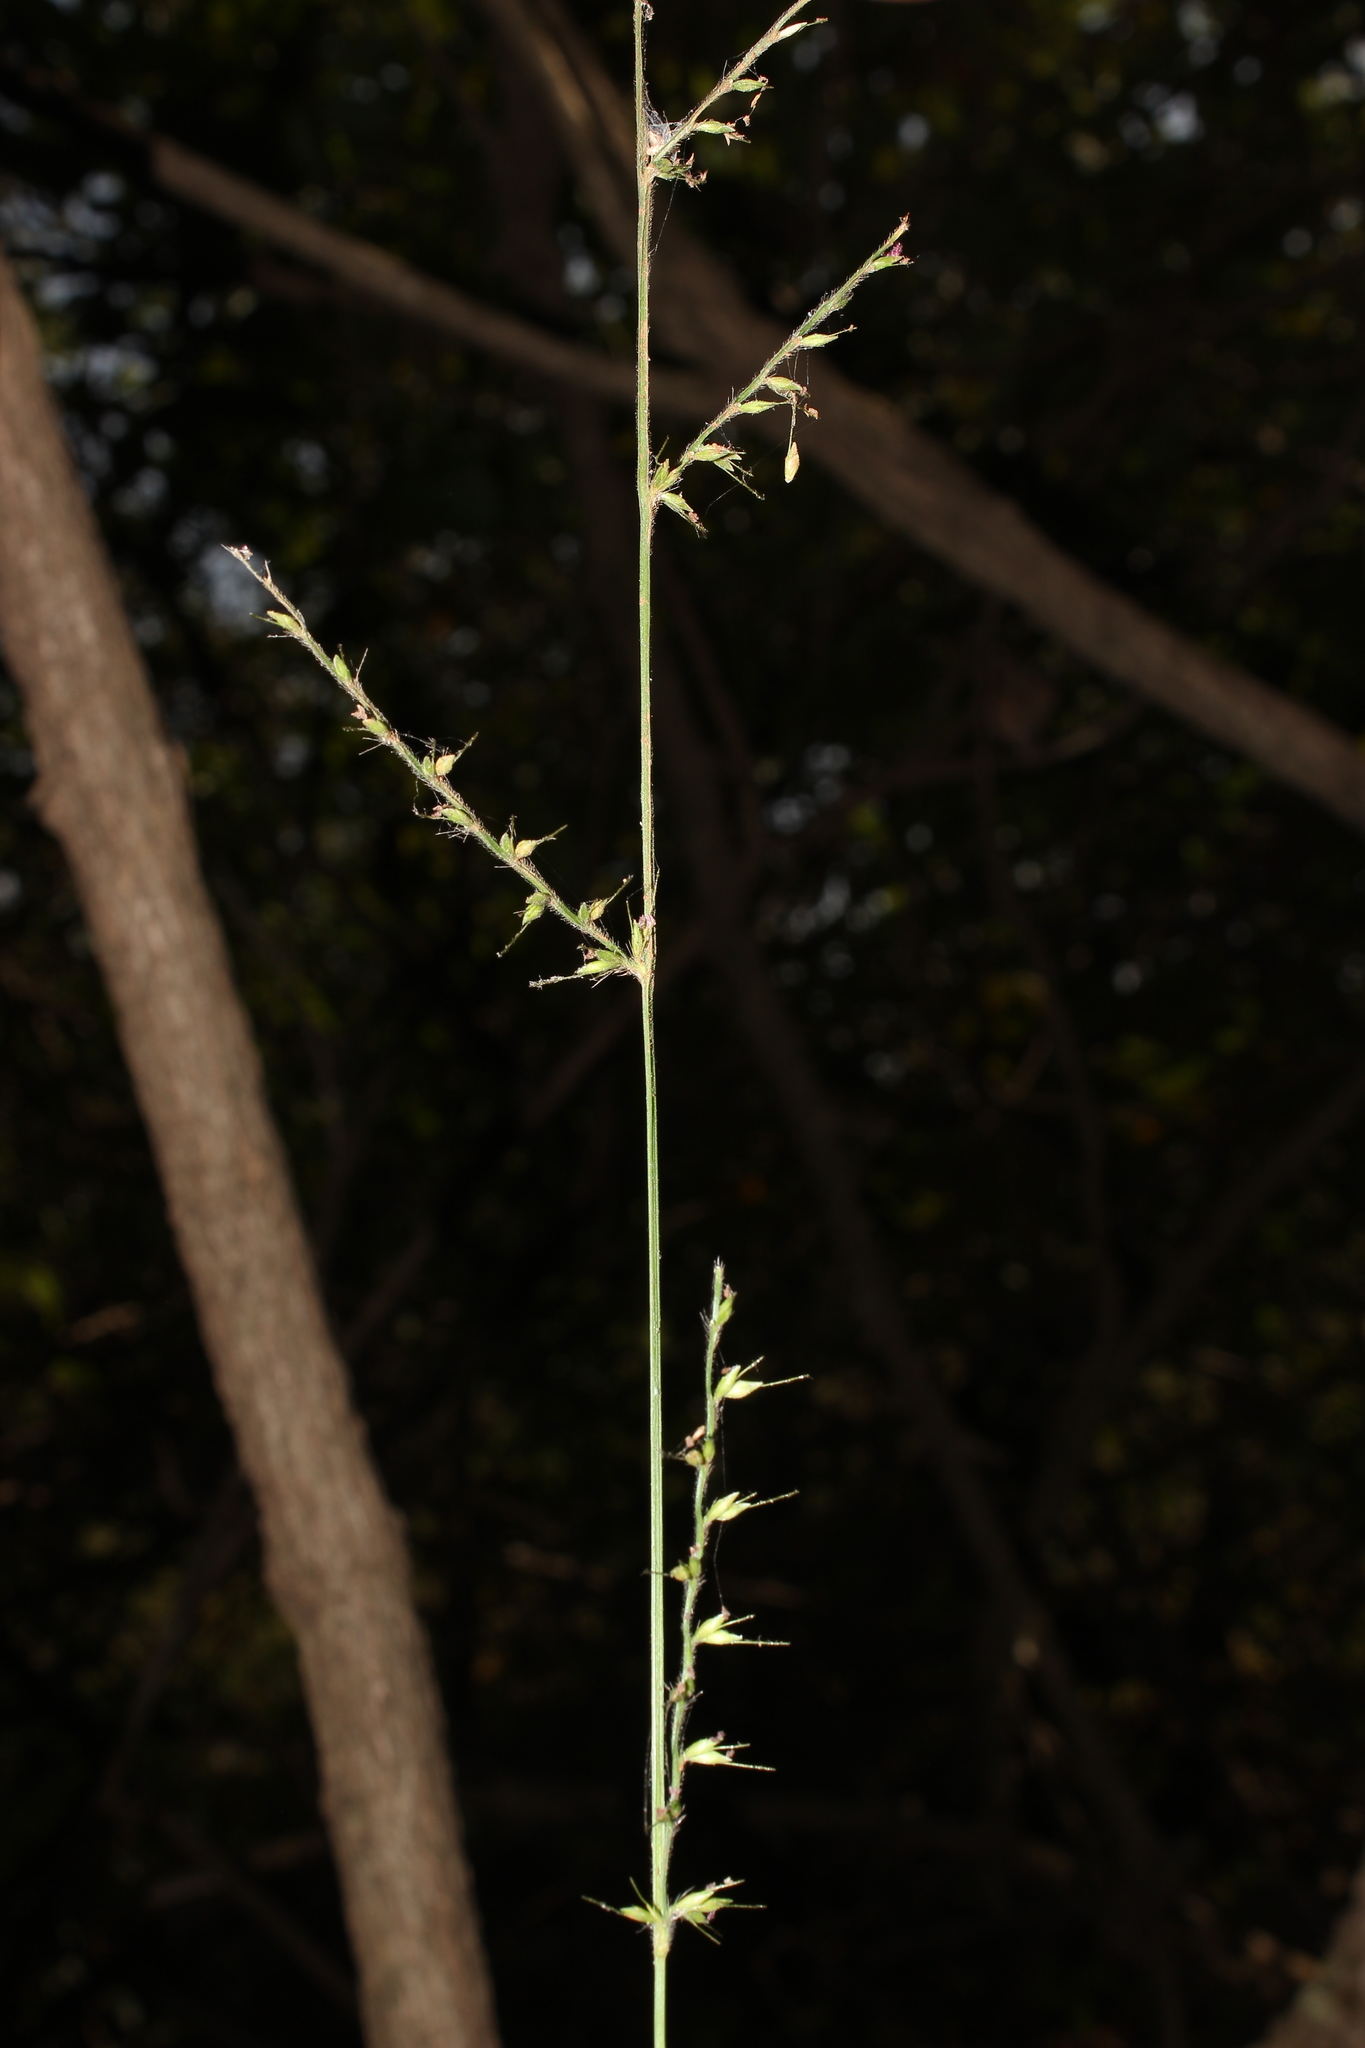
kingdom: Plantae
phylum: Tracheophyta
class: Liliopsida
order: Poales
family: Poaceae
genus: Oplismenus
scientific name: Oplismenus compositus
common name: Running mountain grass
